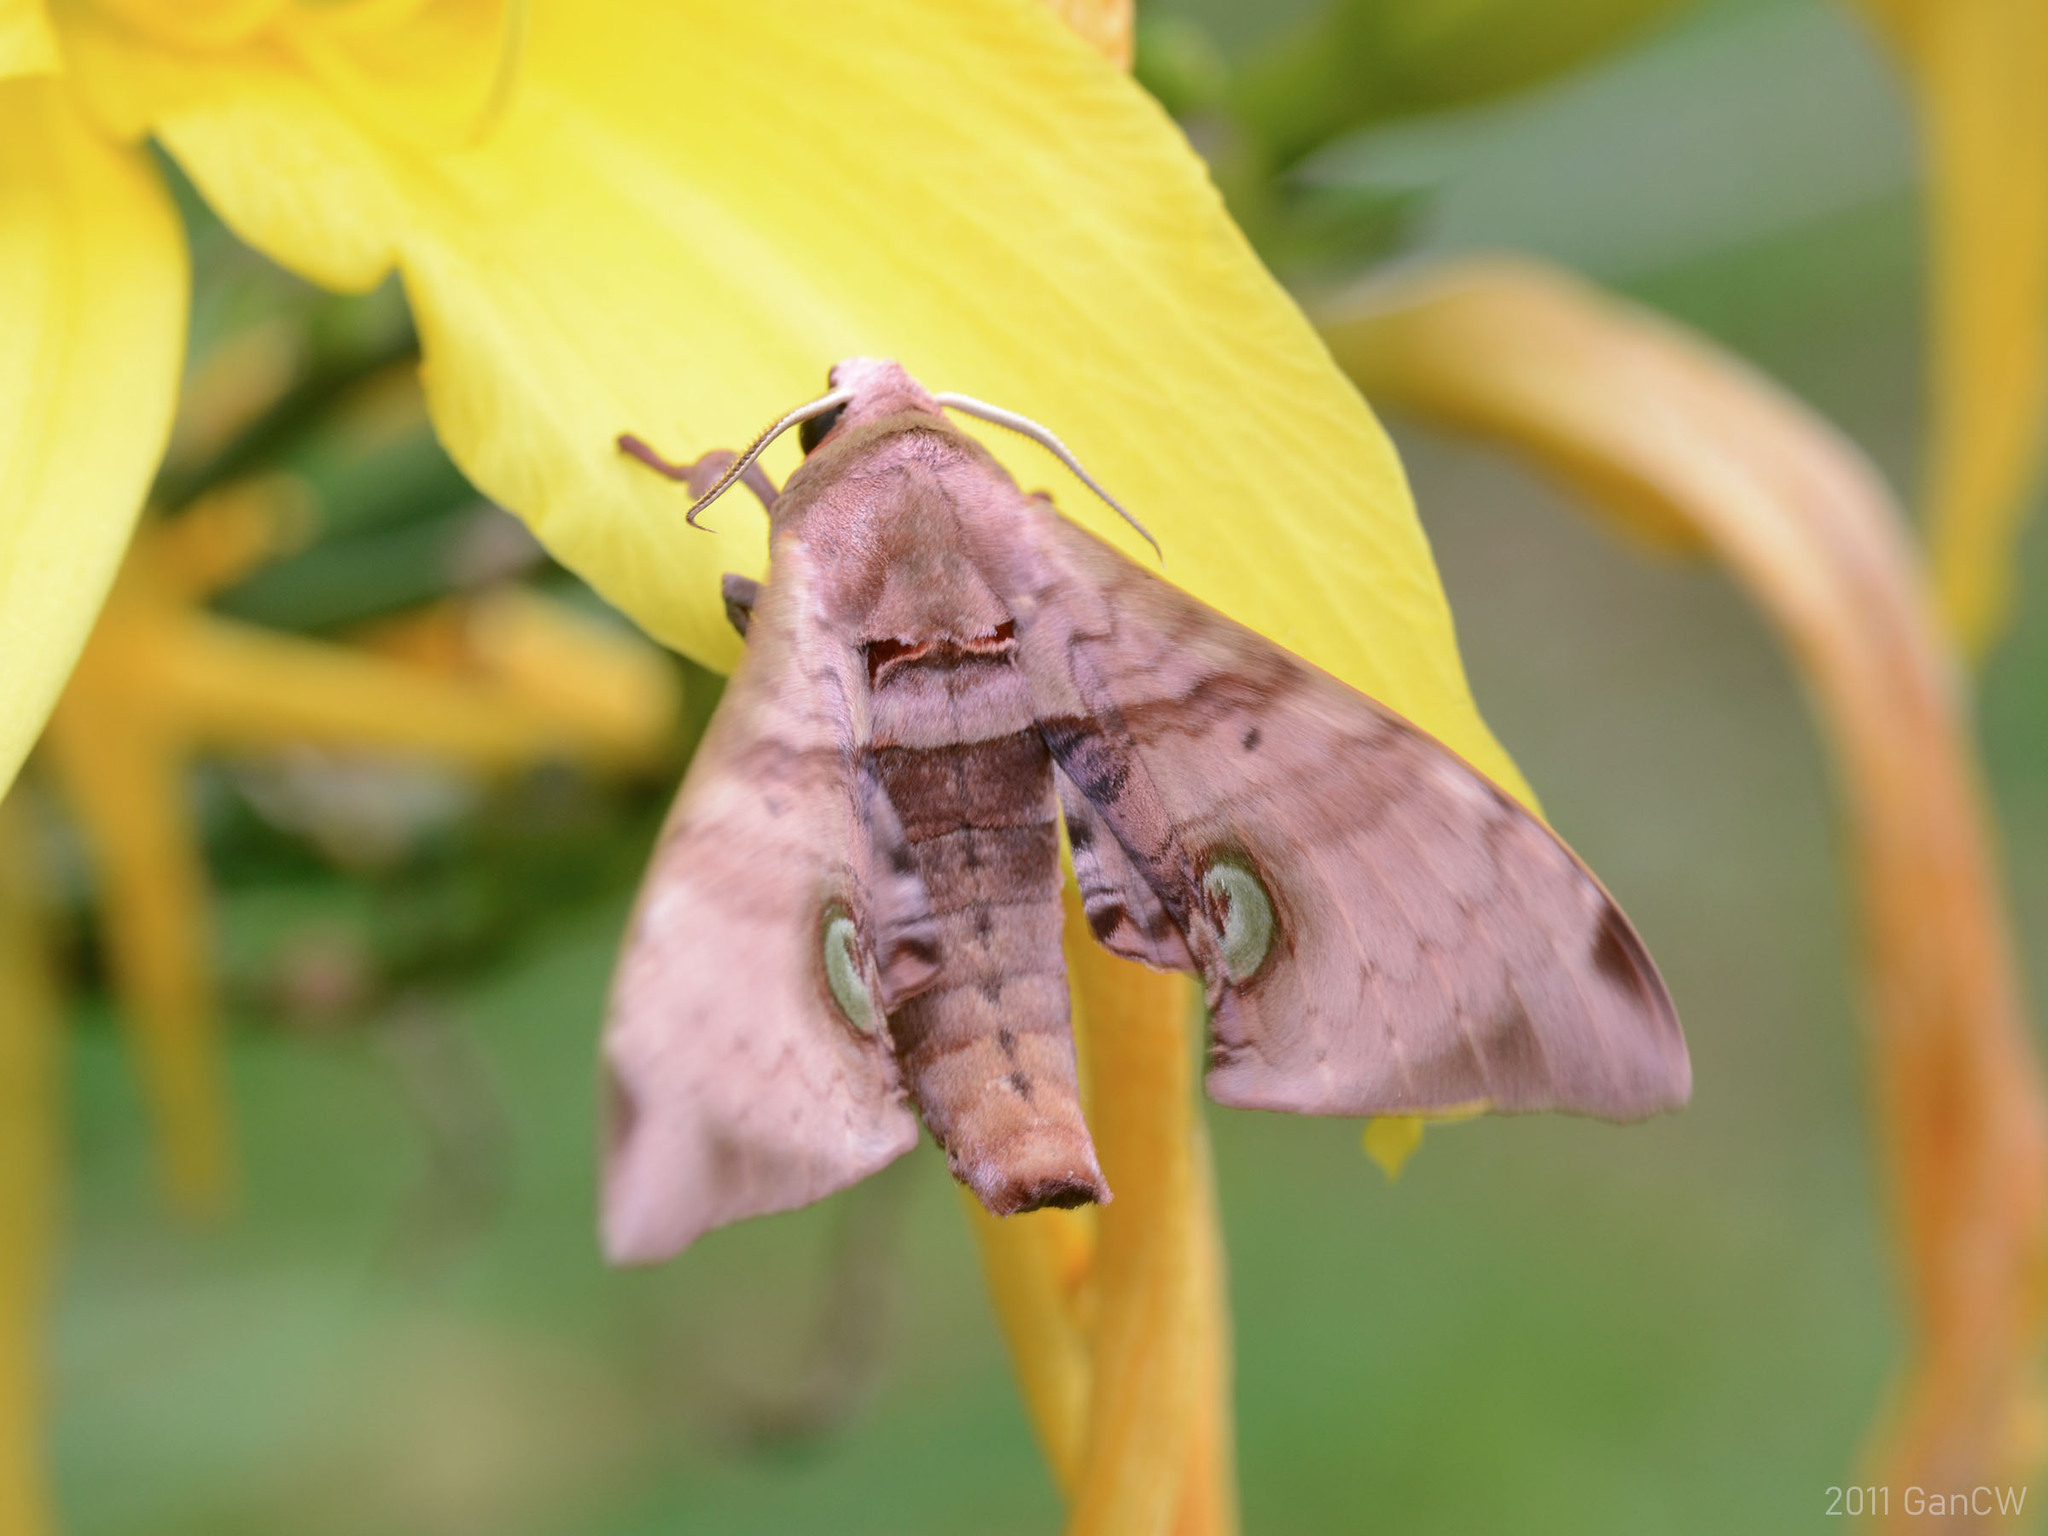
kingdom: Animalia
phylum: Arthropoda
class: Insecta
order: Lepidoptera
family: Sphingidae
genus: Daphnusa
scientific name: Daphnusa ocellaris
